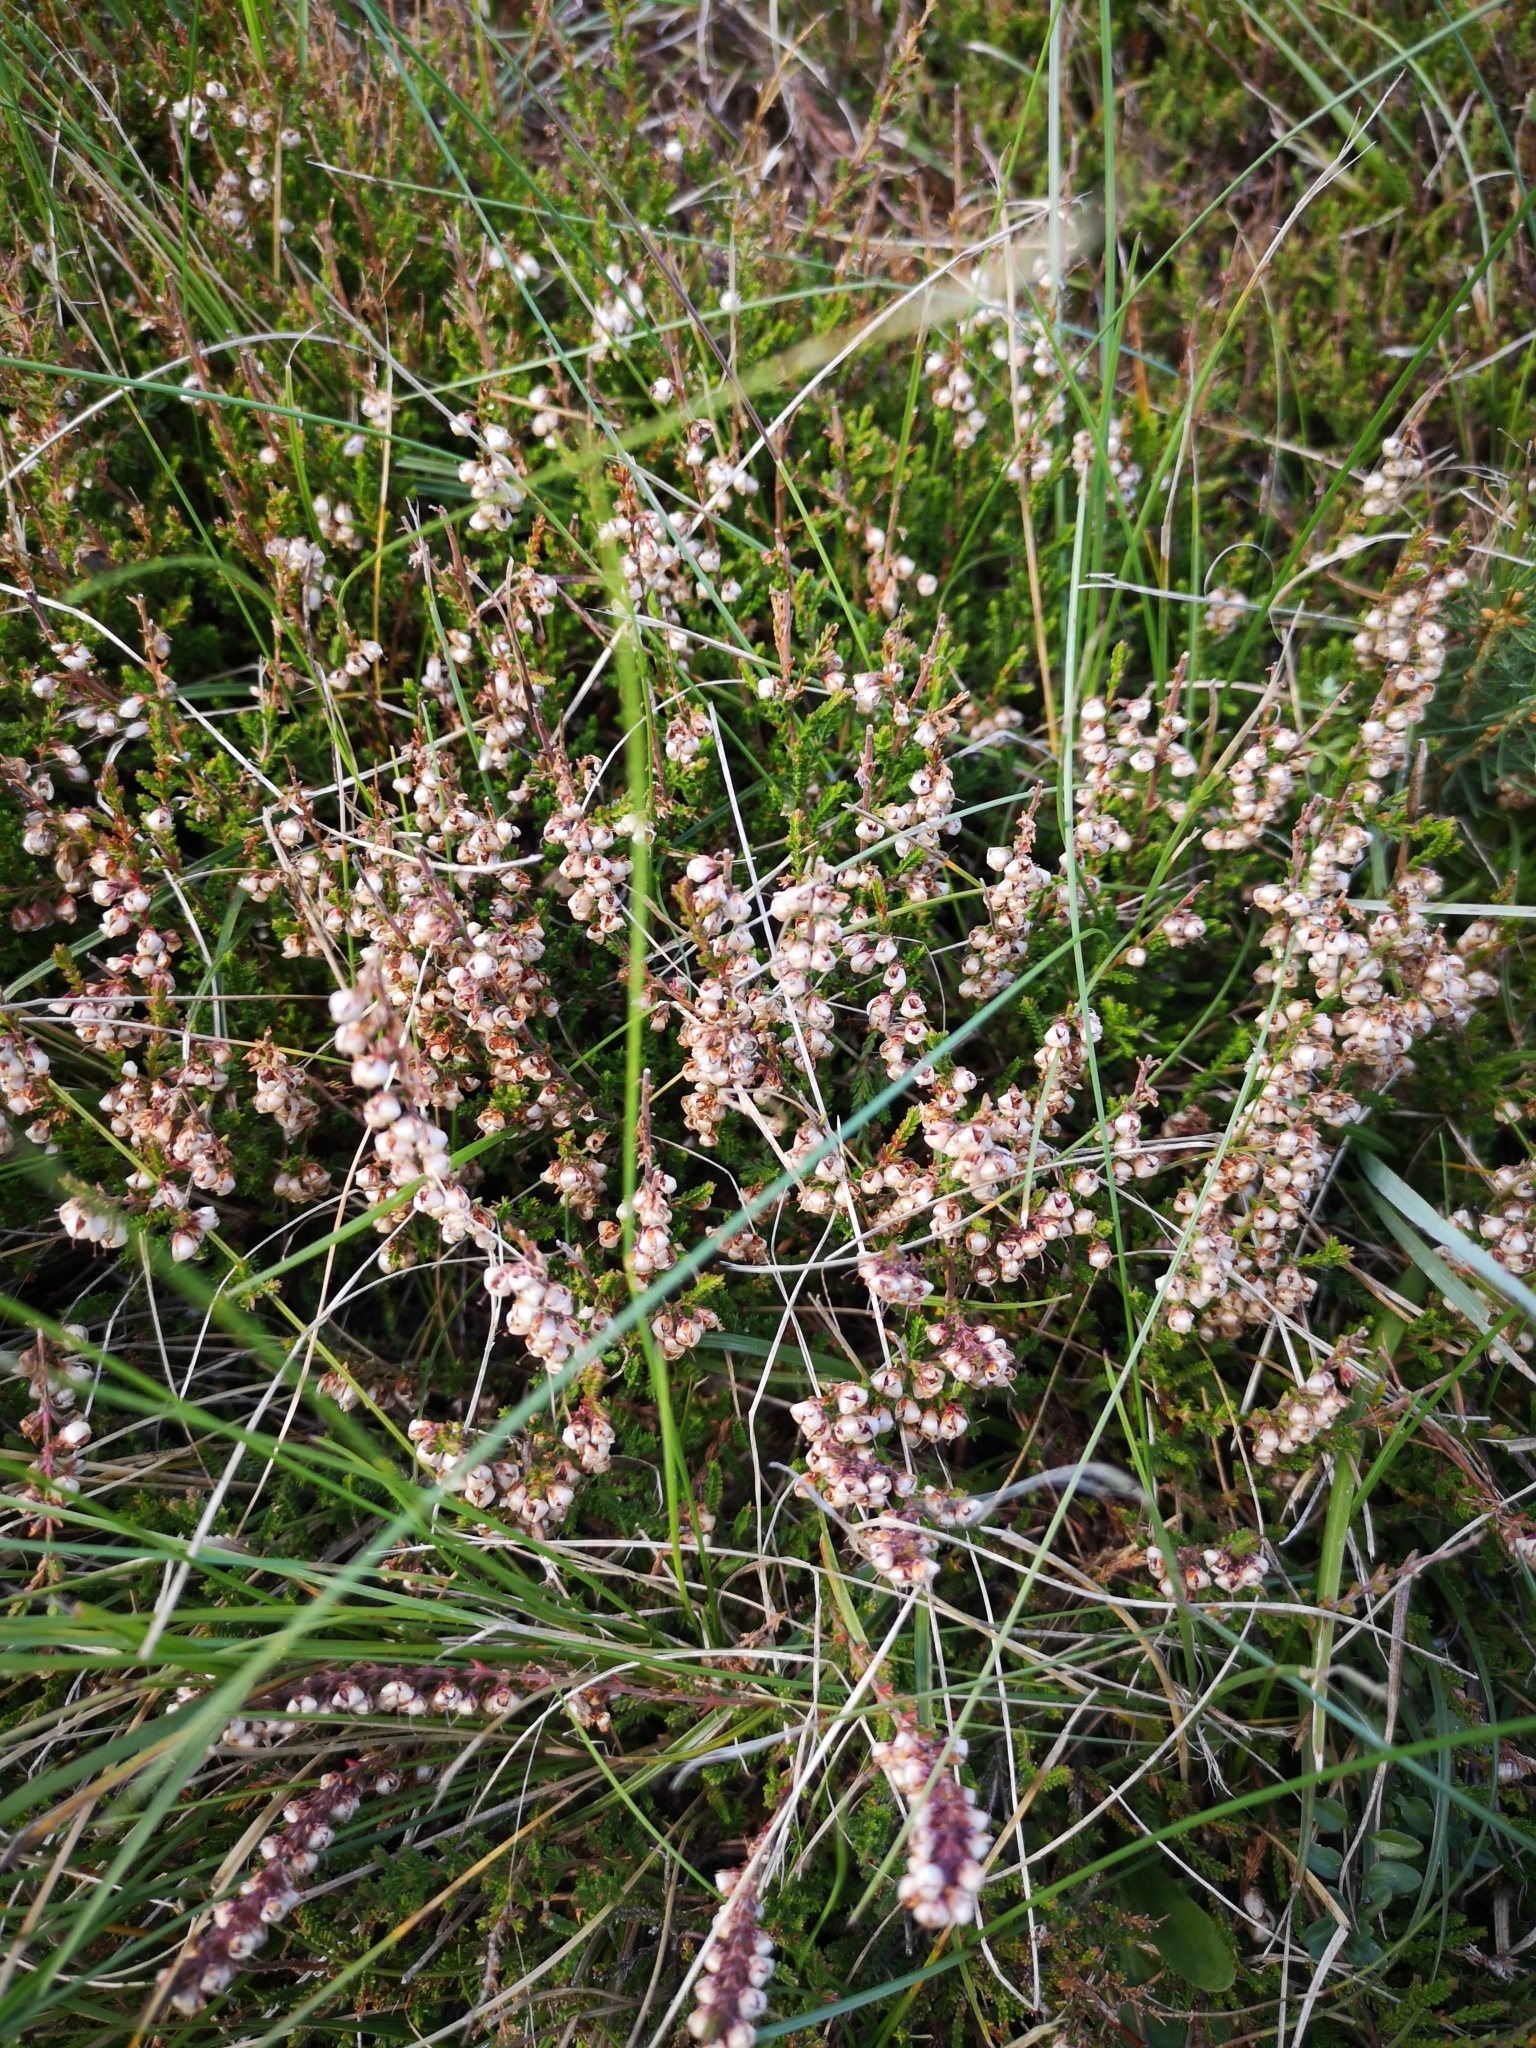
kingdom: Plantae
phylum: Tracheophyta
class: Magnoliopsida
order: Ericales
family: Ericaceae
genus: Calluna
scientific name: Calluna vulgaris
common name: Heather
